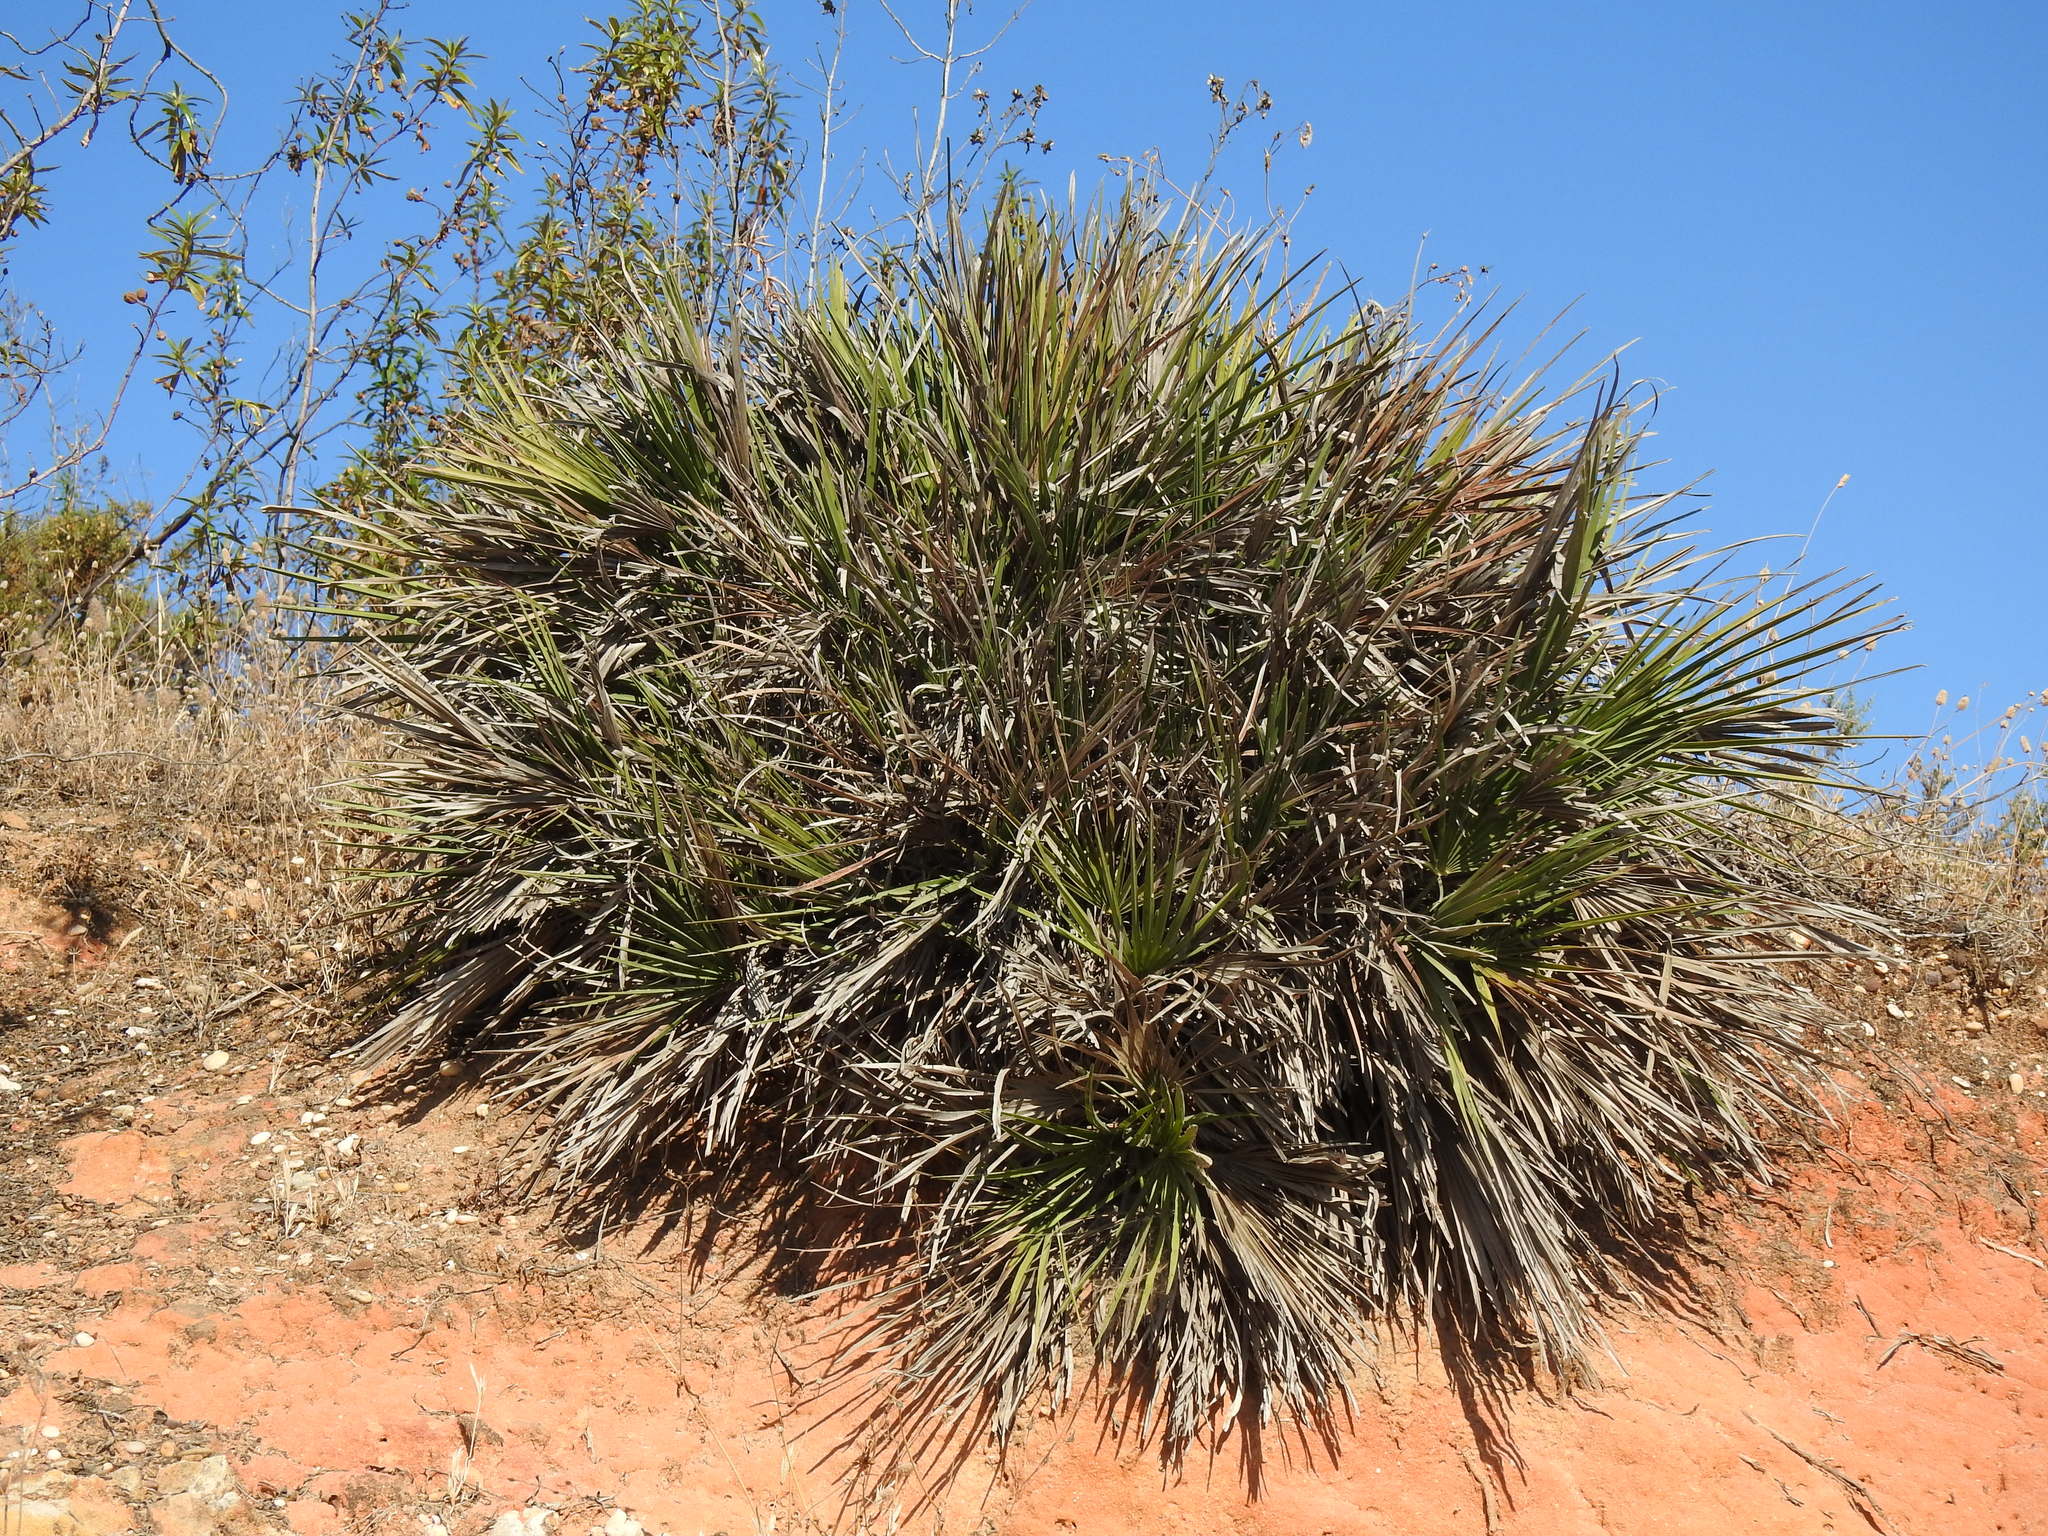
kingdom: Plantae
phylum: Tracheophyta
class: Liliopsida
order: Arecales
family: Arecaceae
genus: Chamaerops
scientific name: Chamaerops humilis
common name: Dwarf fan palm
